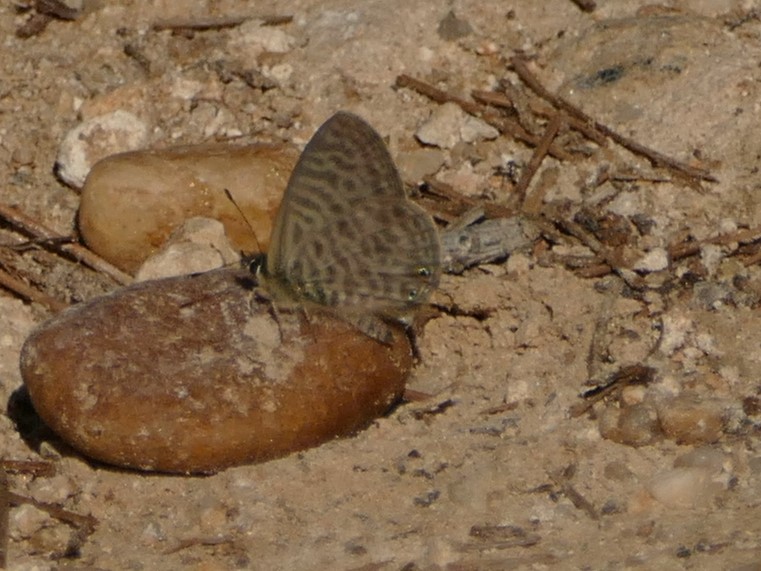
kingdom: Animalia
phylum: Arthropoda
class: Insecta
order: Lepidoptera
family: Lycaenidae
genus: Leptotes
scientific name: Leptotes pirithous
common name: Lang's short-tailed blue
